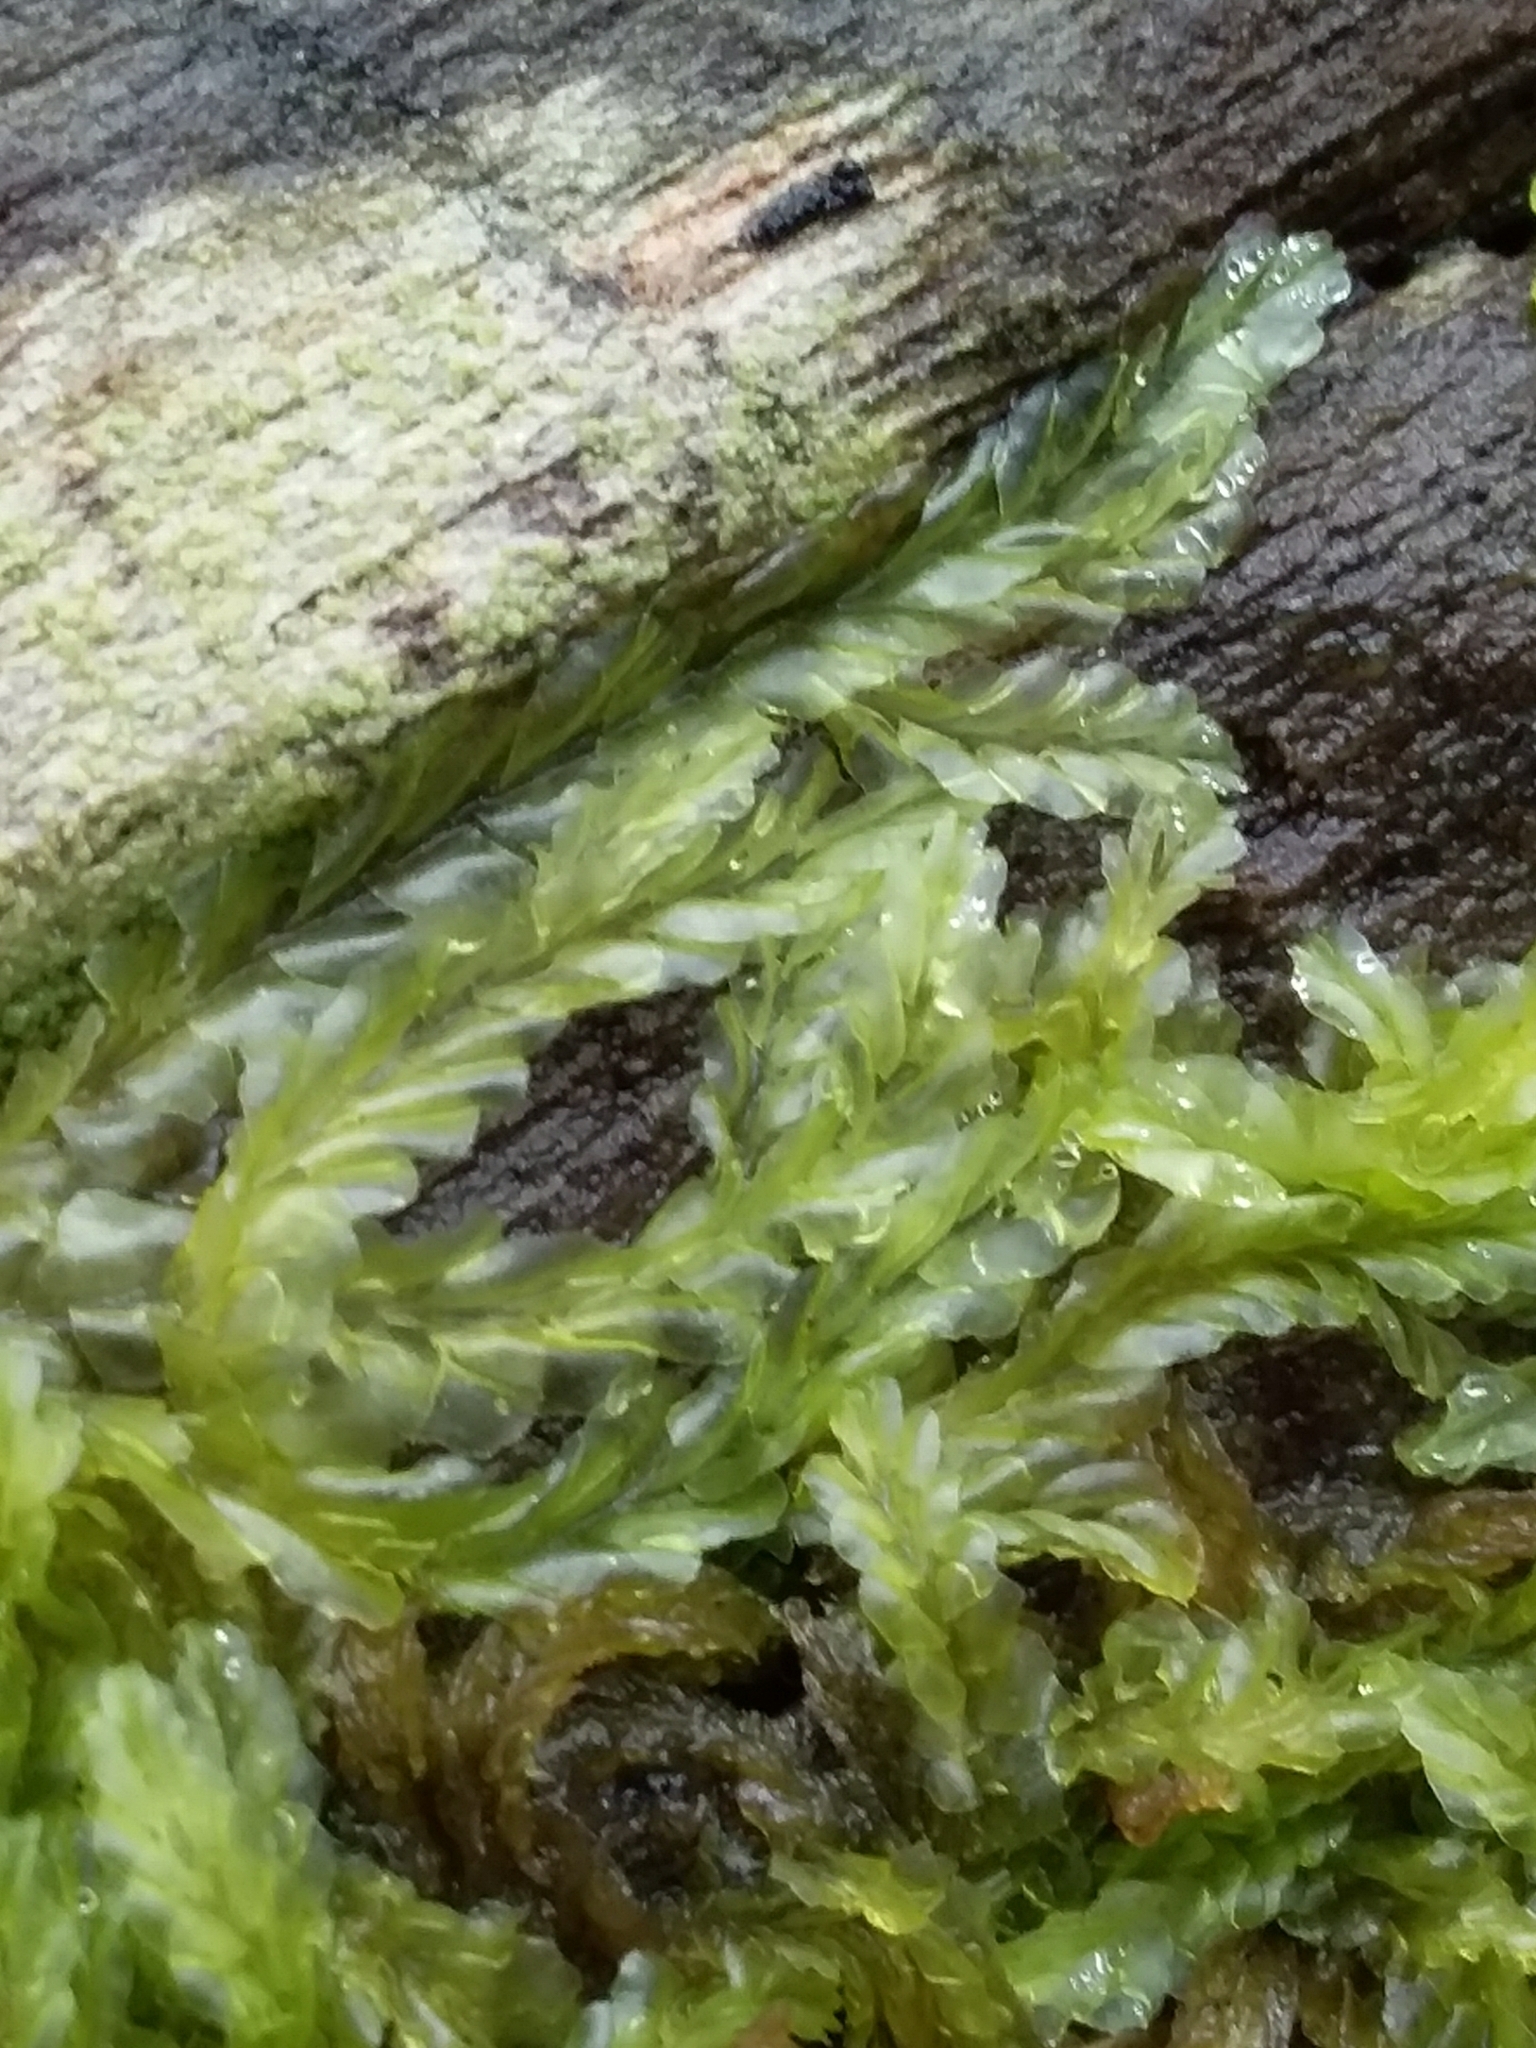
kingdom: Plantae
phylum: Marchantiophyta
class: Jungermanniopsida
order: Jungermanniales
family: Lophocoleaceae
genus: Lophocolea
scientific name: Lophocolea semiteres
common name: Southern crestwort
